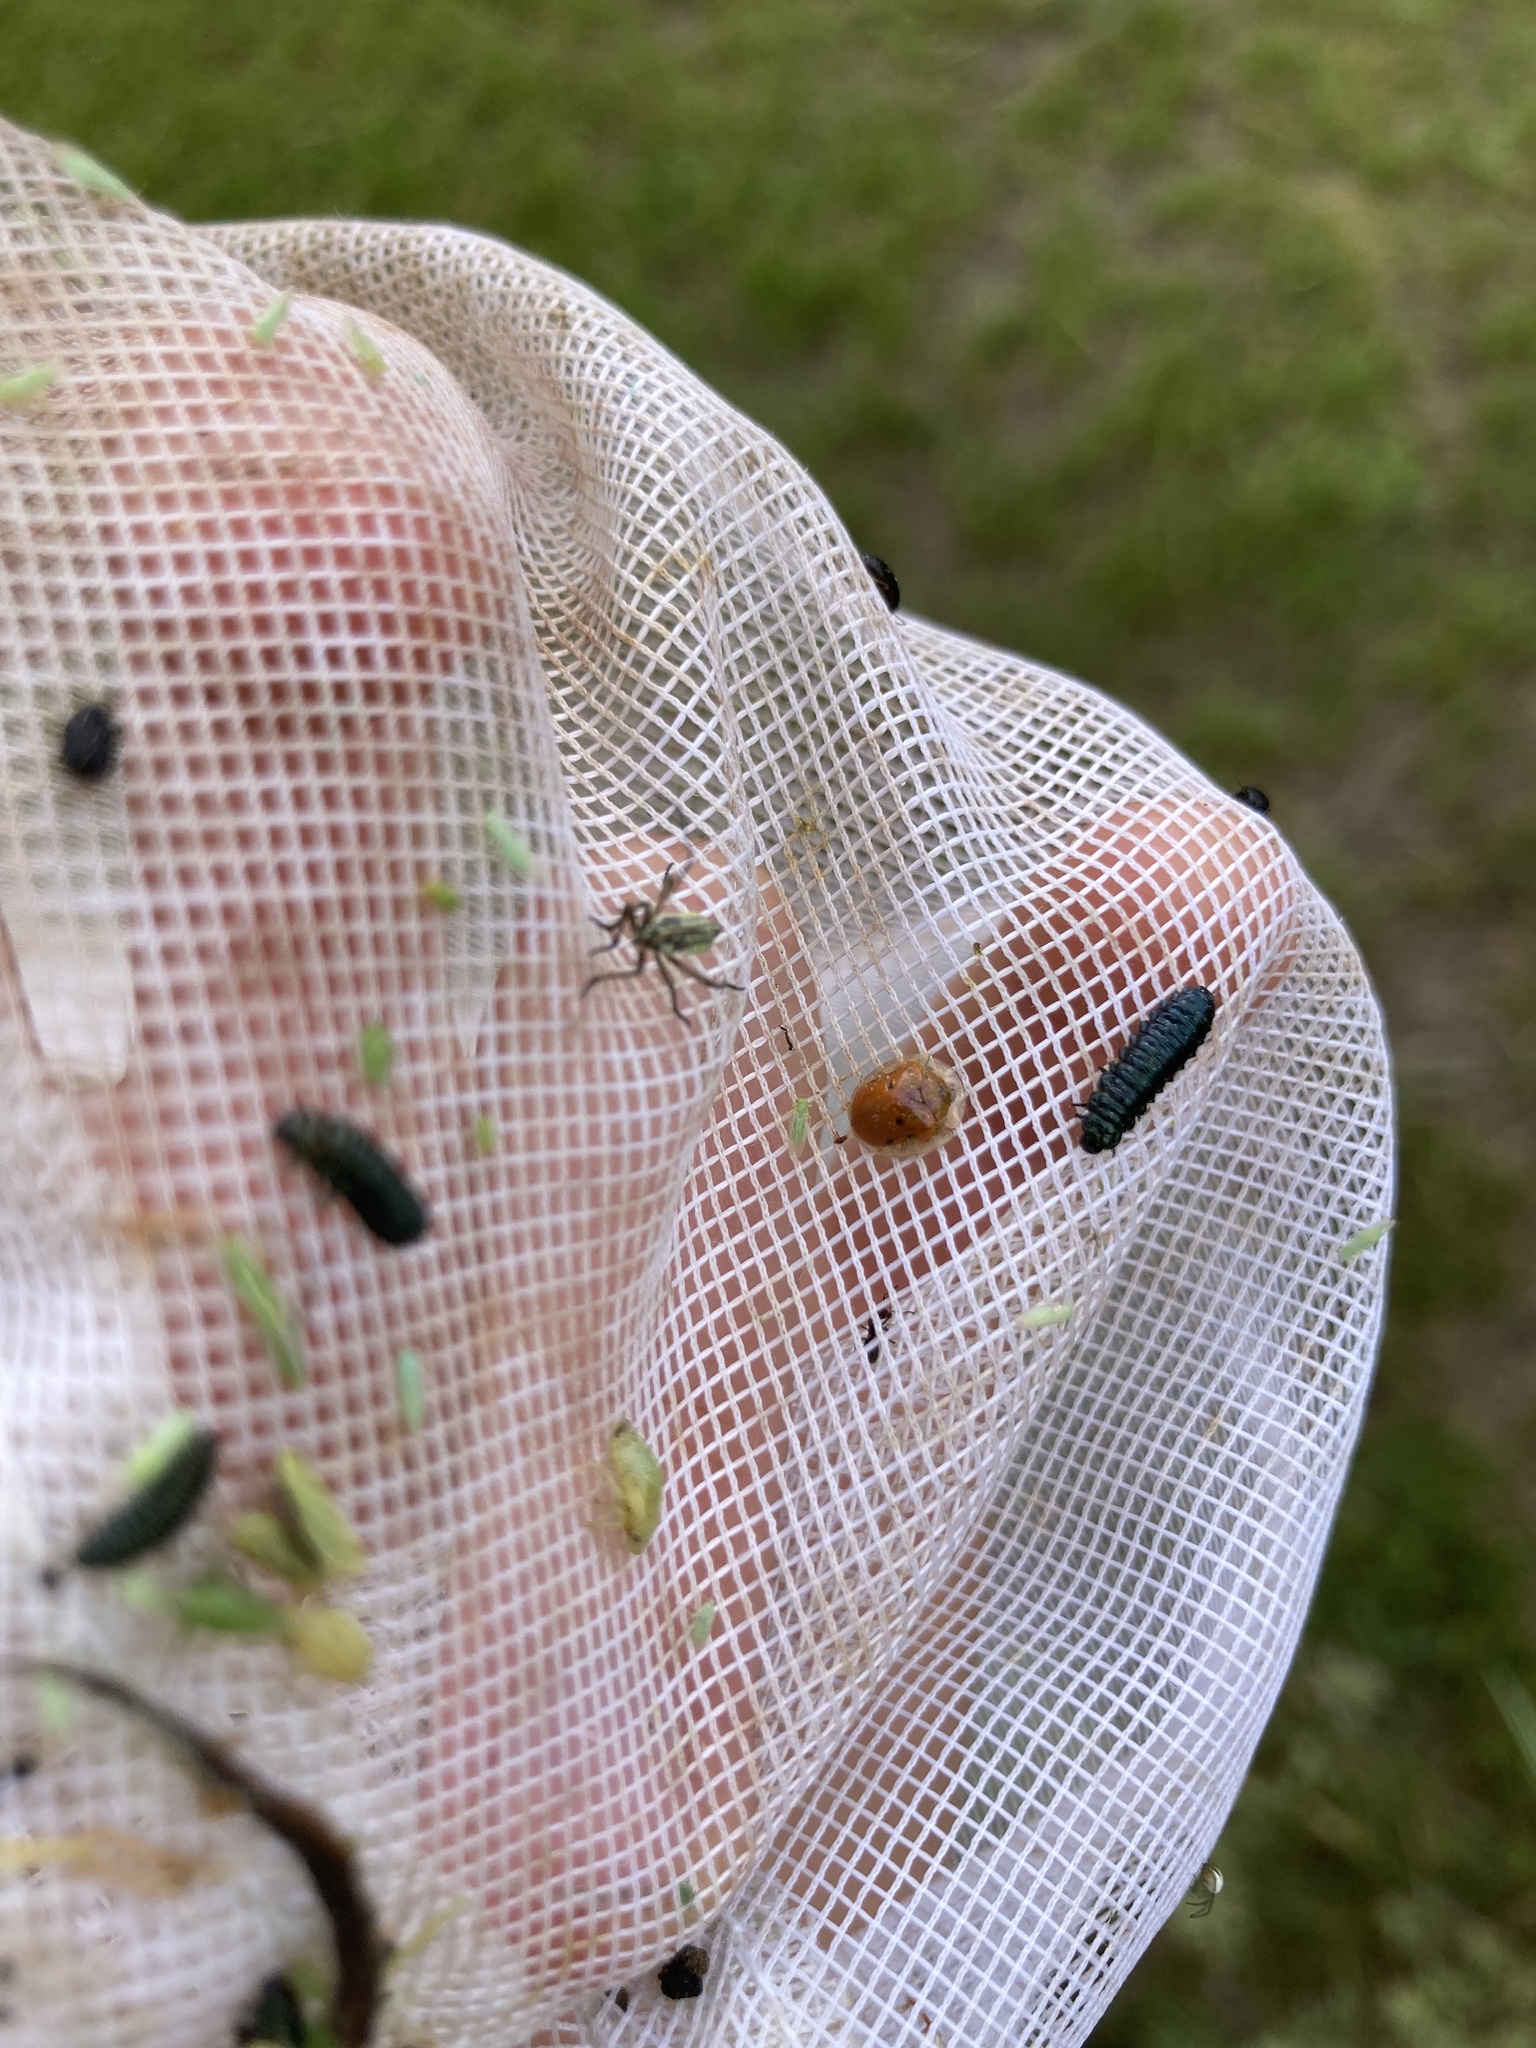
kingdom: Animalia
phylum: Arthropoda
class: Insecta
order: Coleoptera
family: Chrysomelidae
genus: Charidotella
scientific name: Charidotella sexpunctata
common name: Golden tortoise beetle
